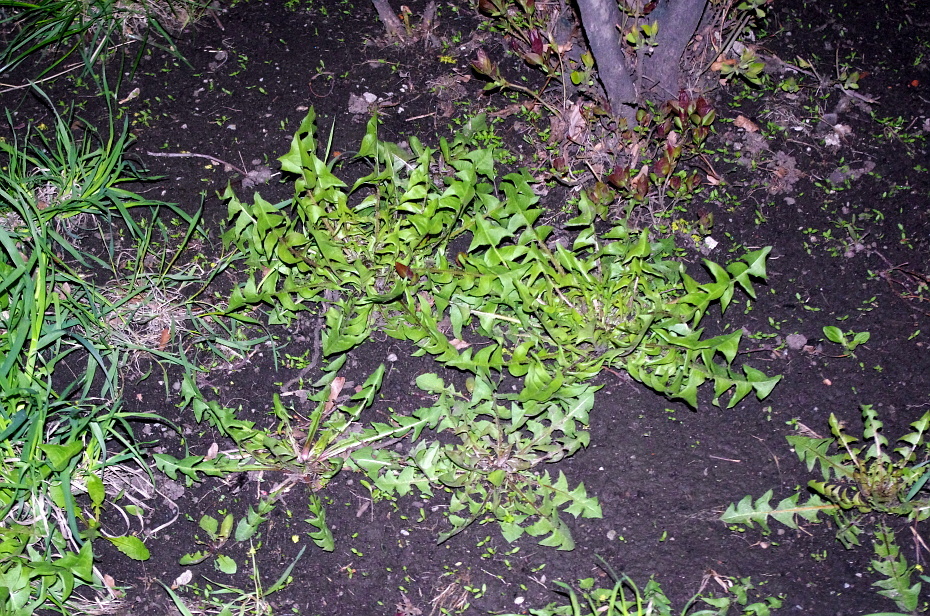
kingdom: Plantae
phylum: Tracheophyta
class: Magnoliopsida
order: Asterales
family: Asteraceae
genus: Taraxacum
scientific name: Taraxacum officinale
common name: Common dandelion
